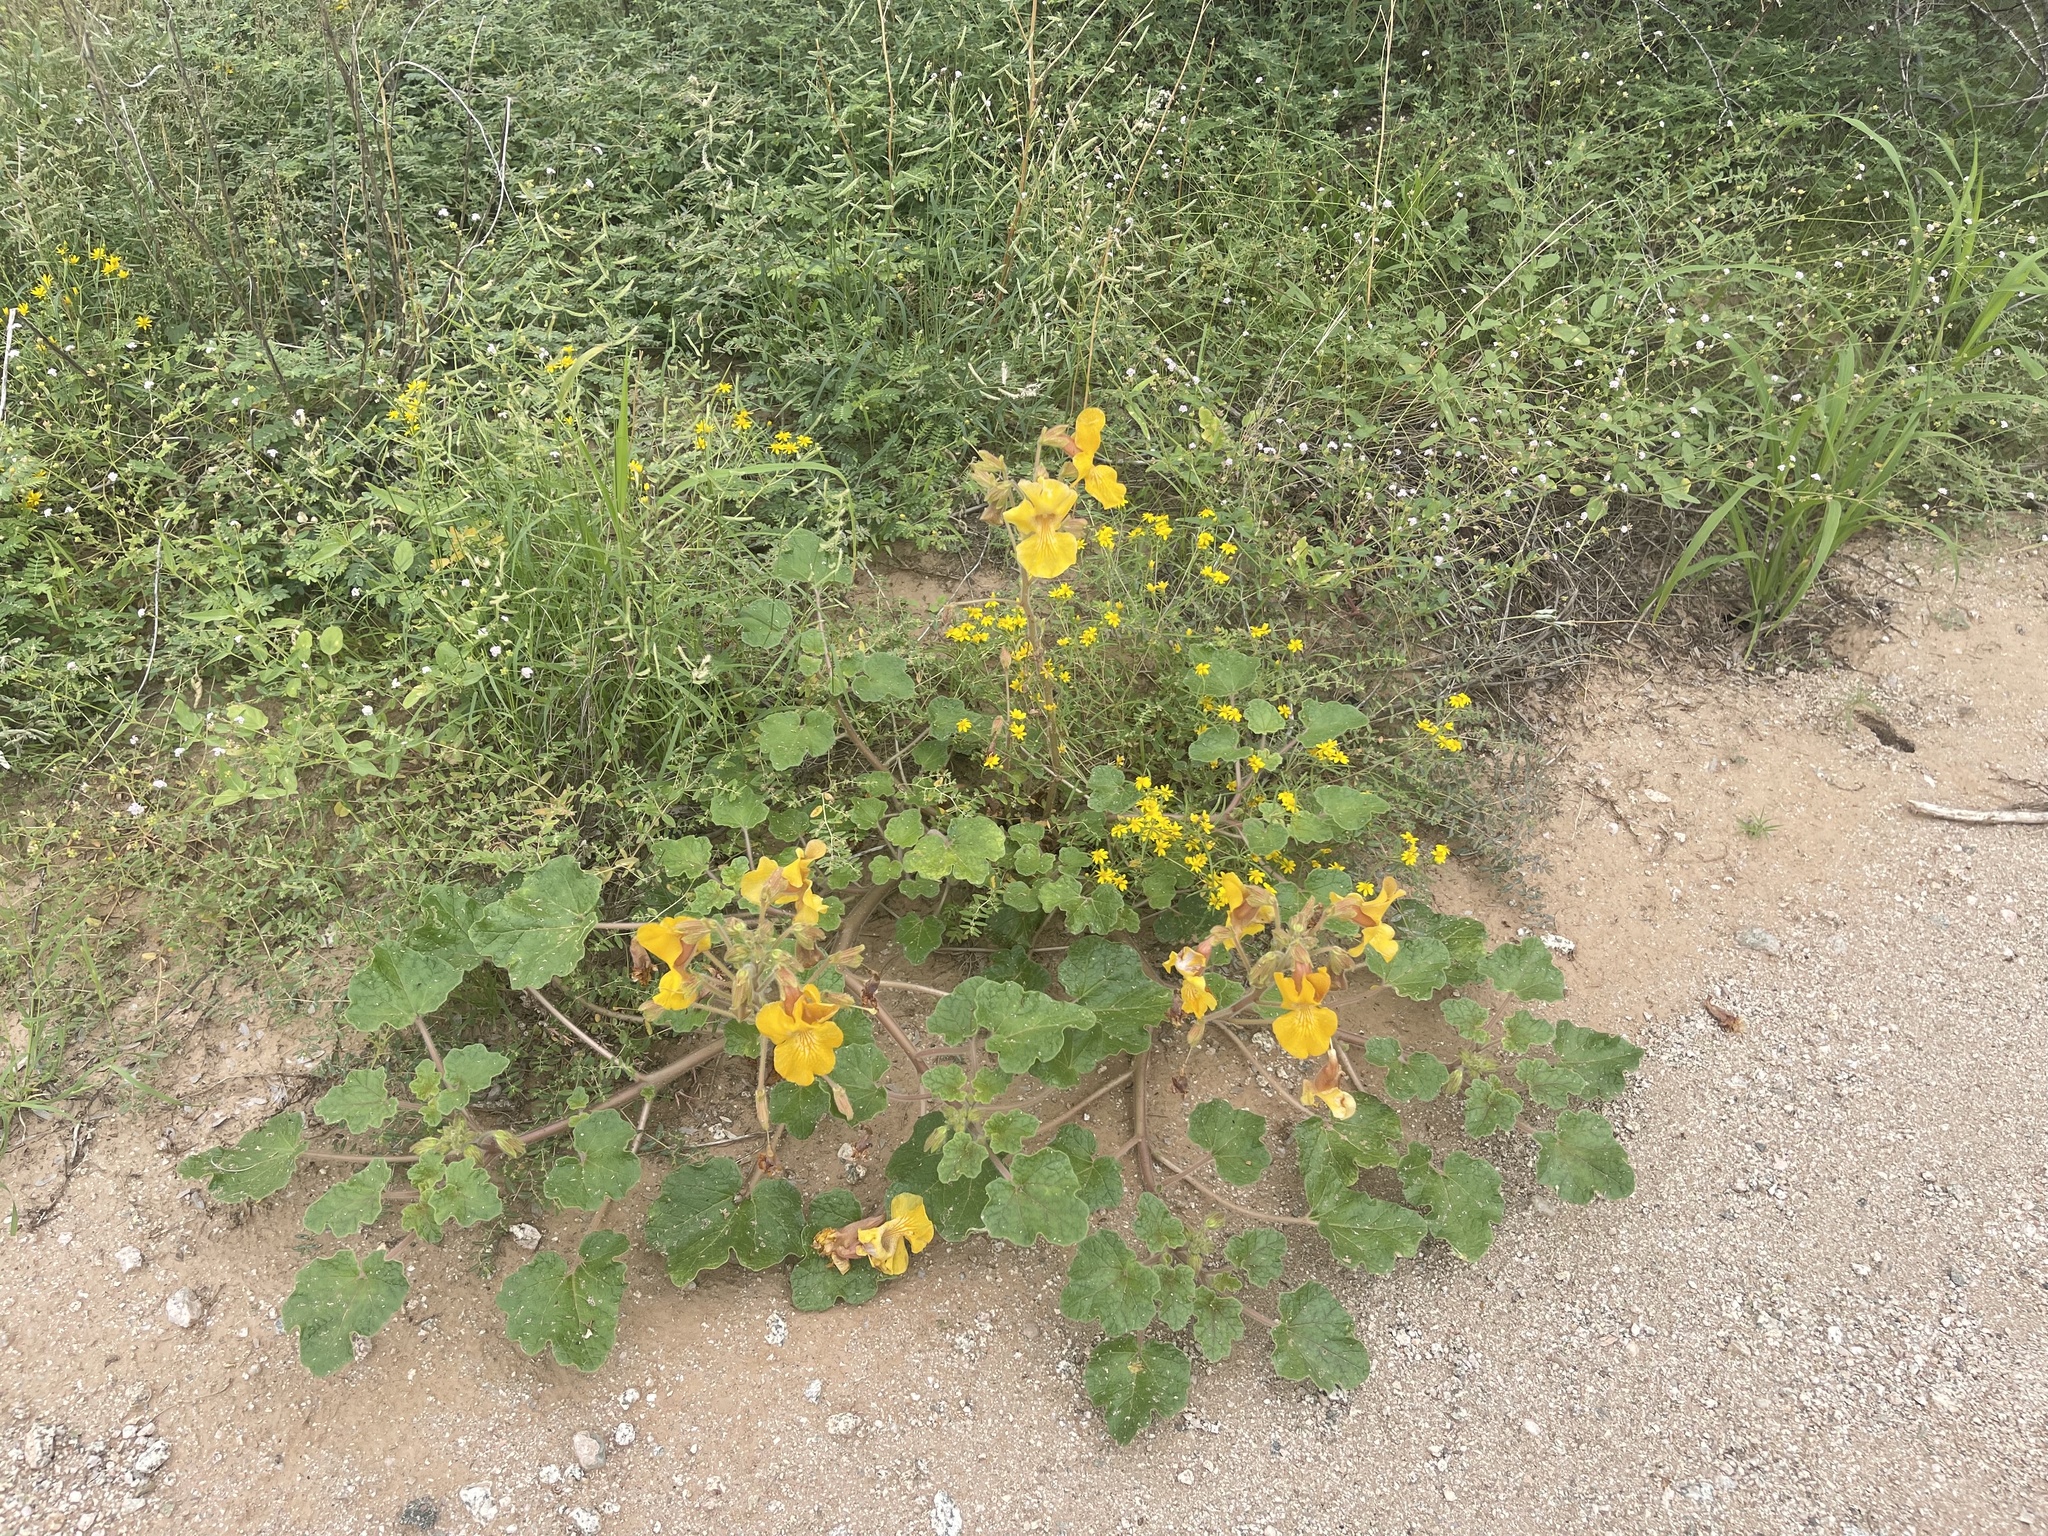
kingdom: Plantae
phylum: Tracheophyta
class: Magnoliopsida
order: Lamiales
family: Martyniaceae
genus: Proboscidea
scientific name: Proboscidea althaeifolia
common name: Desert unicorn-plant
